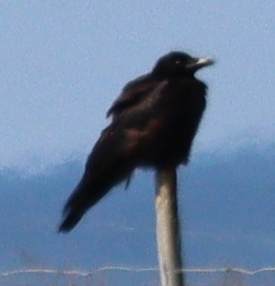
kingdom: Animalia
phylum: Chordata
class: Aves
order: Passeriformes
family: Corvidae
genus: Corvus
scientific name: Corvus corone
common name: Carrion crow
